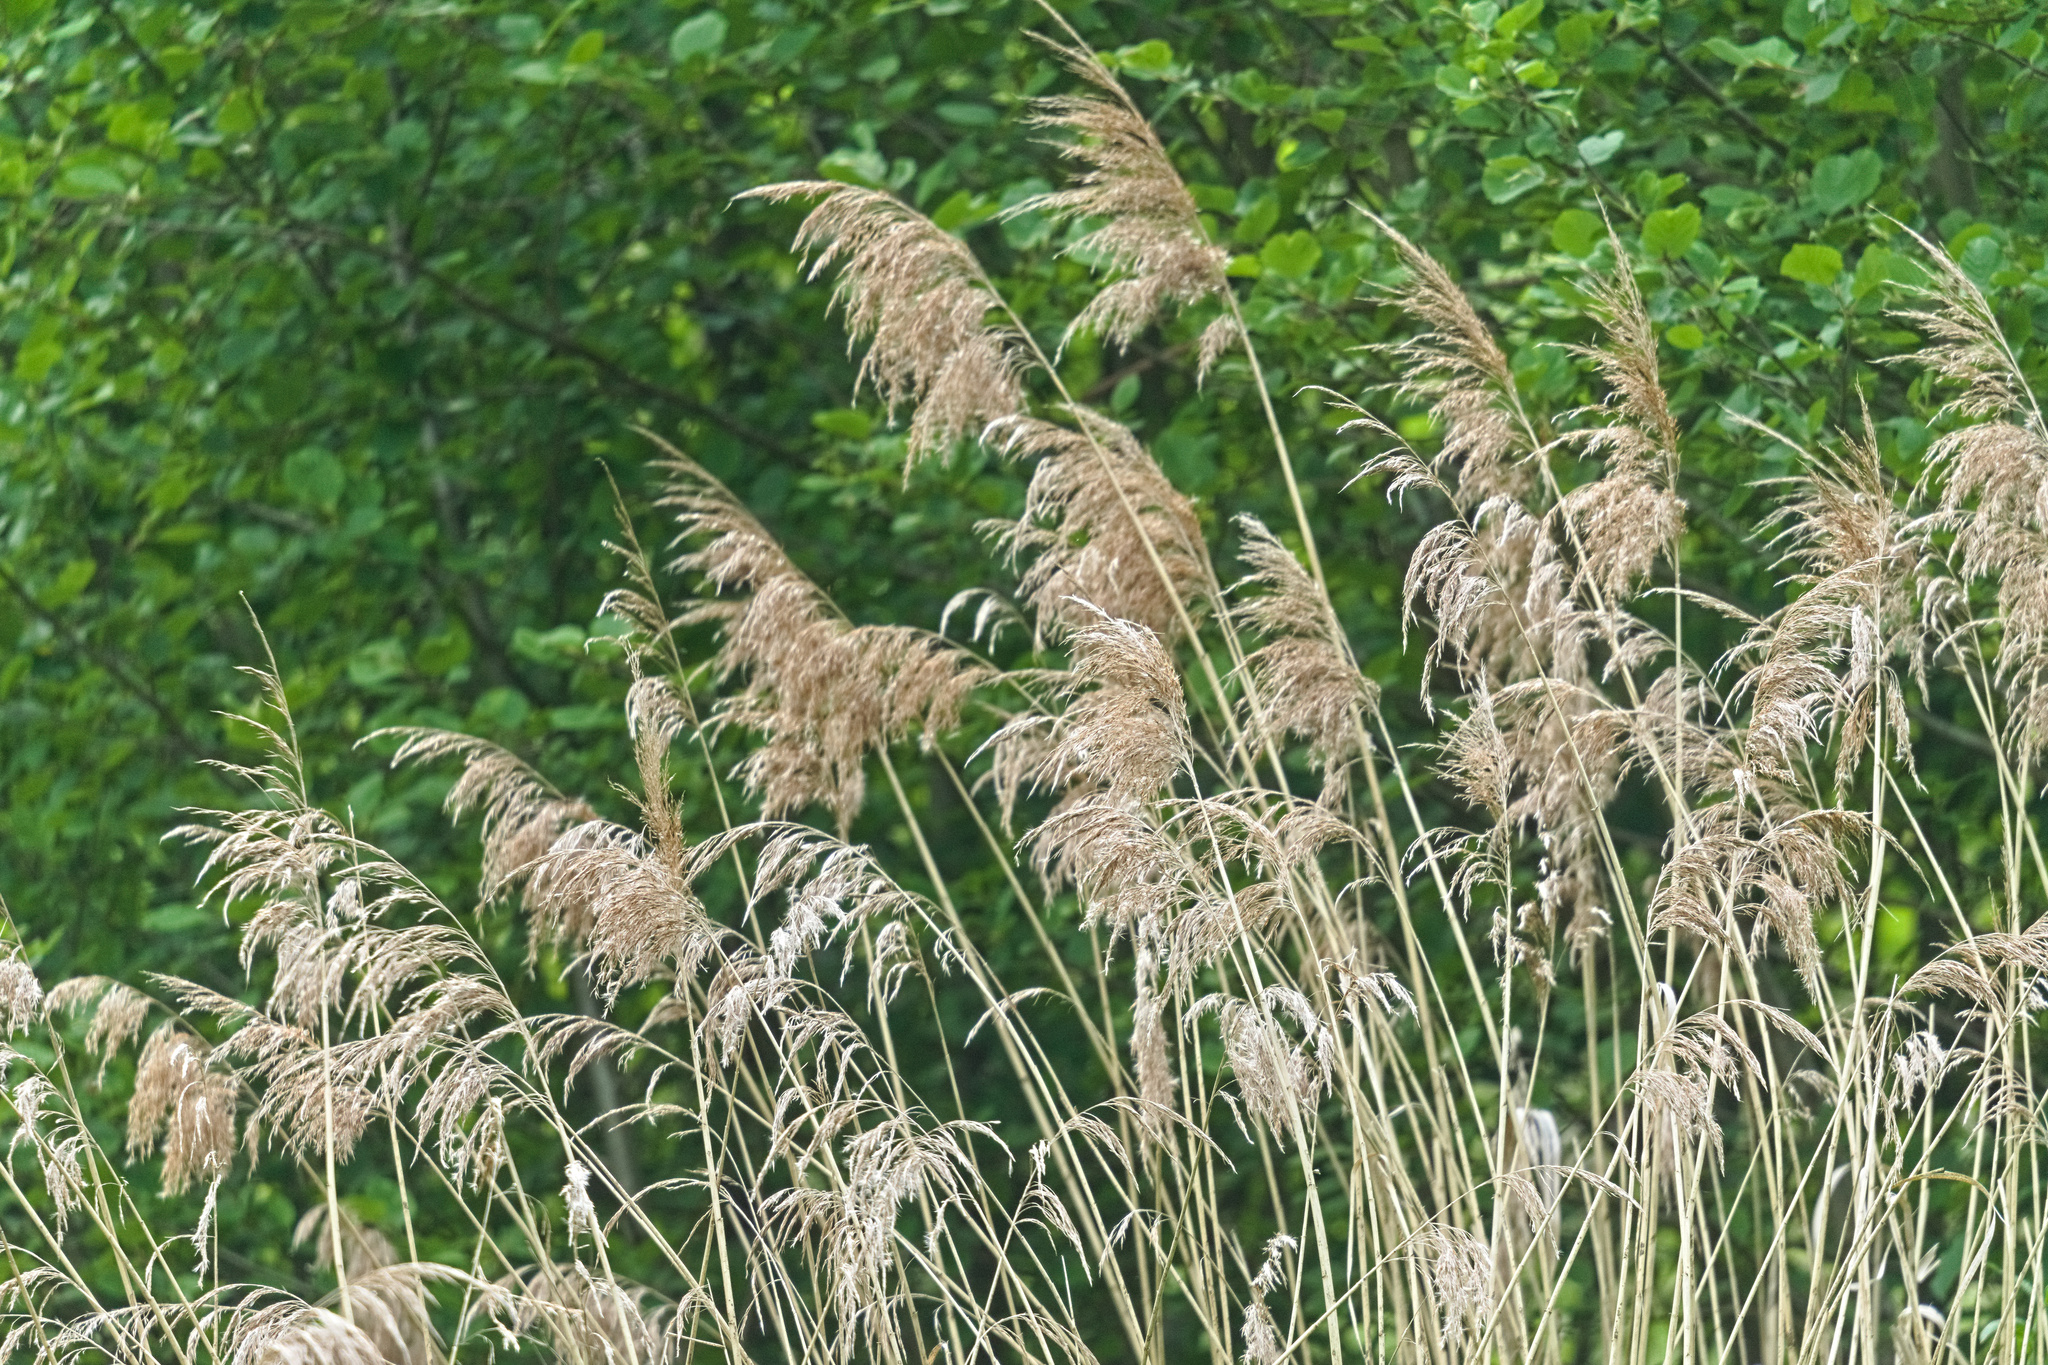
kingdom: Plantae
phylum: Tracheophyta
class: Liliopsida
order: Poales
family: Poaceae
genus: Phragmites
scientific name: Phragmites australis
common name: Common reed
